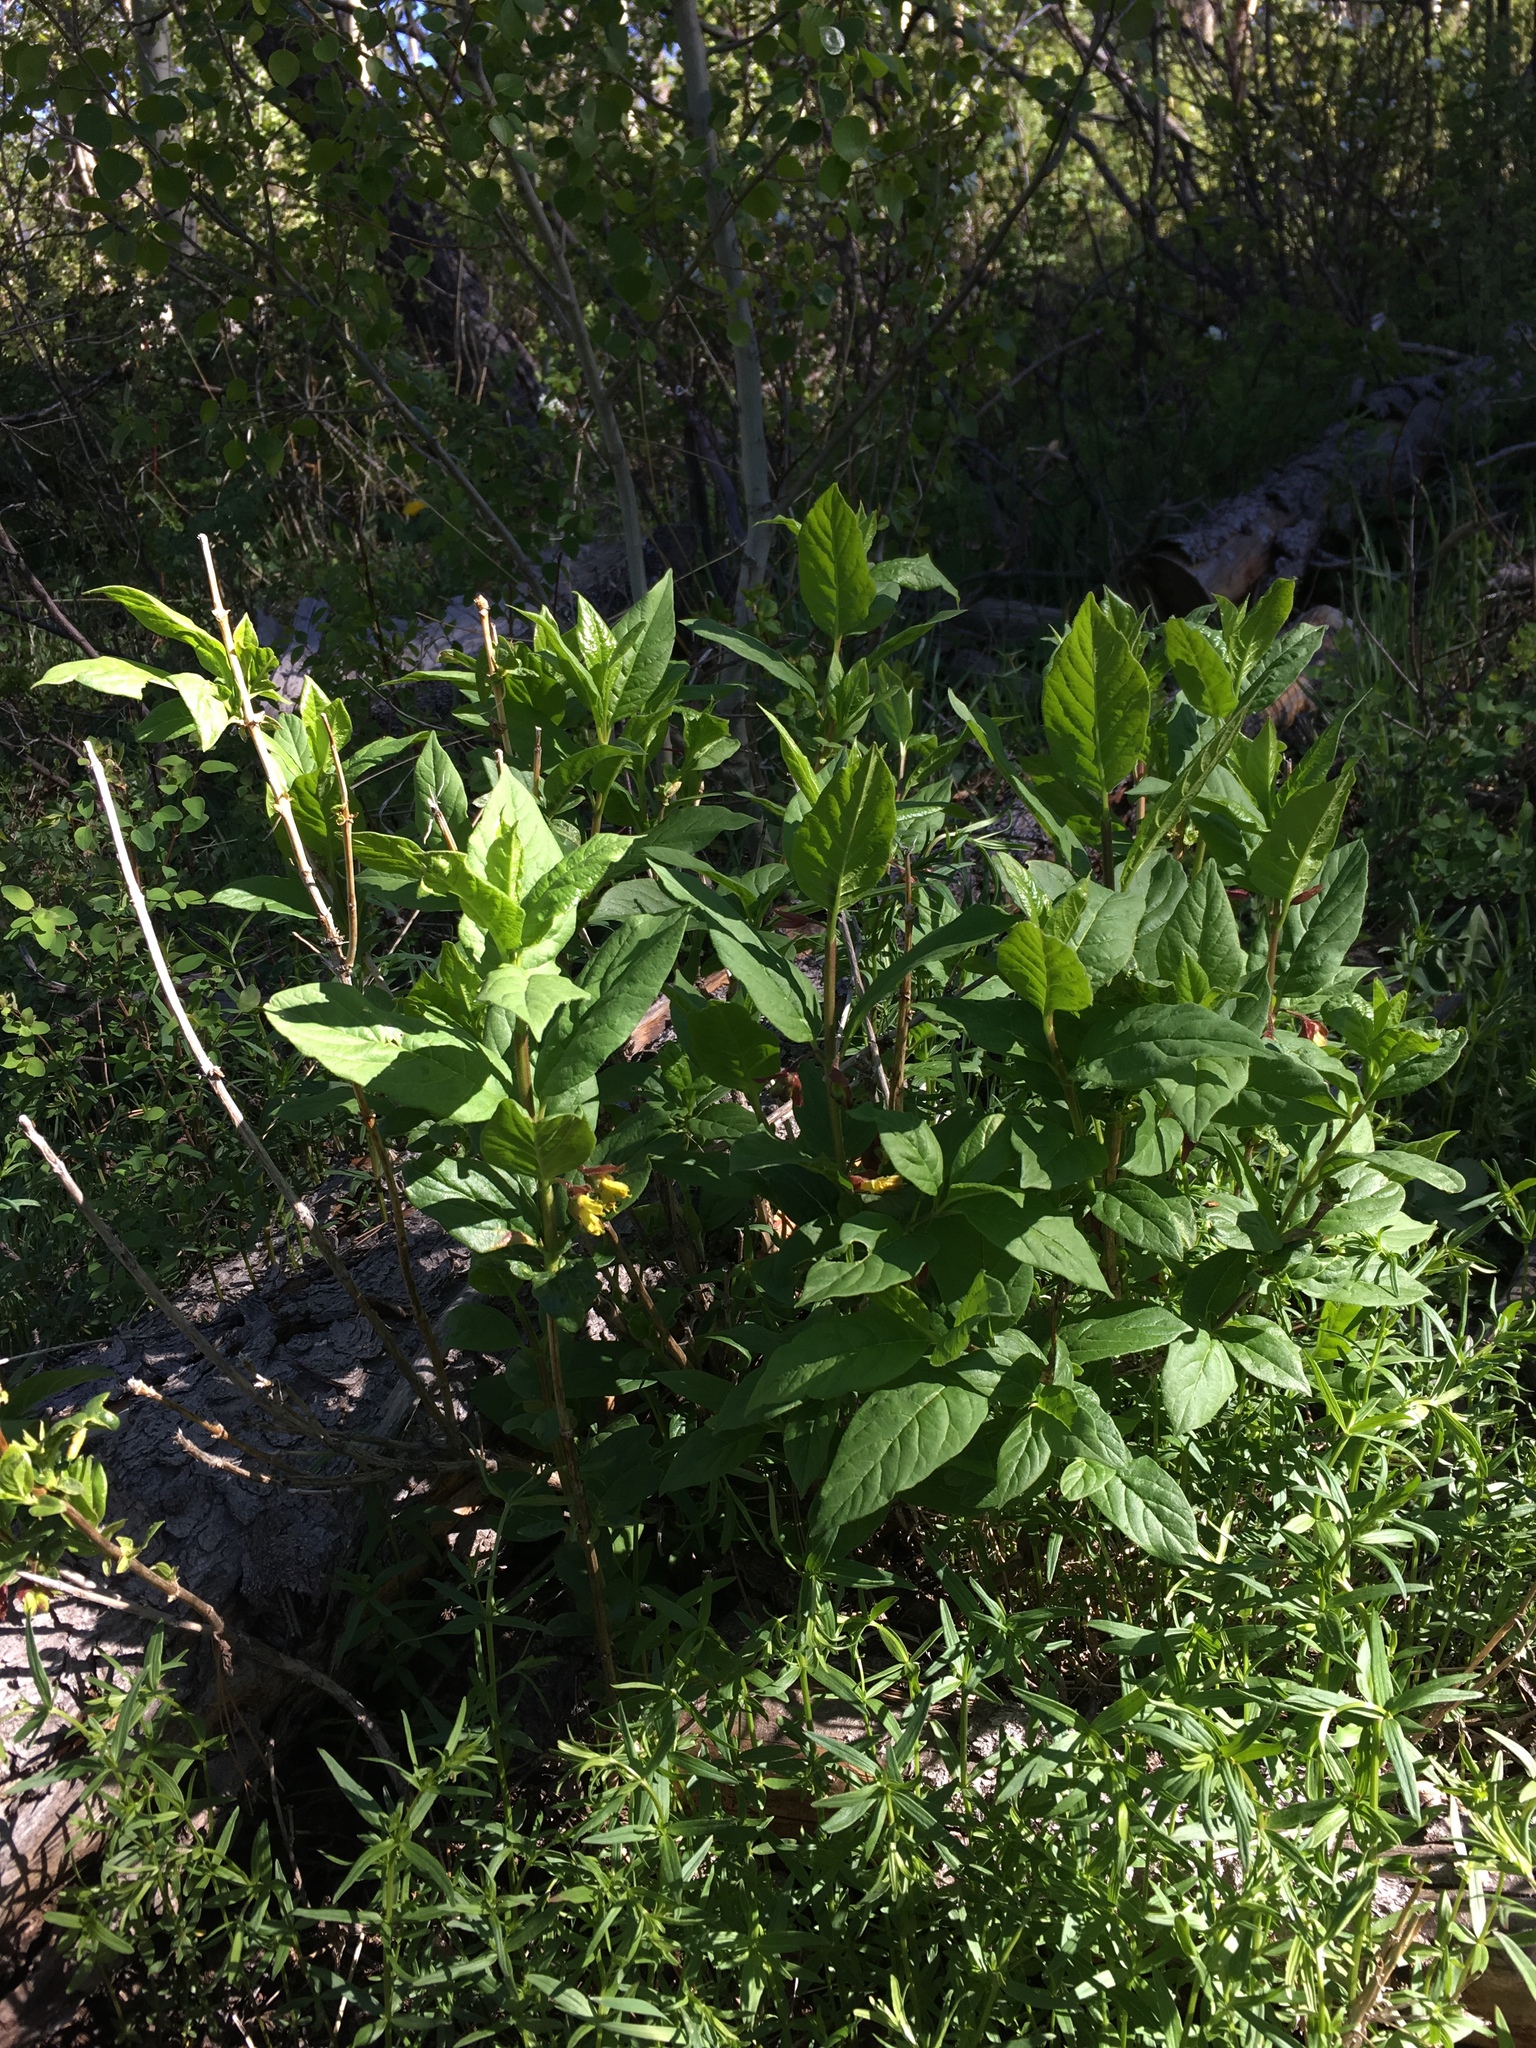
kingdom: Plantae
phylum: Tracheophyta
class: Magnoliopsida
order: Dipsacales
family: Caprifoliaceae
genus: Lonicera
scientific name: Lonicera involucrata
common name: Californian honeysuckle
